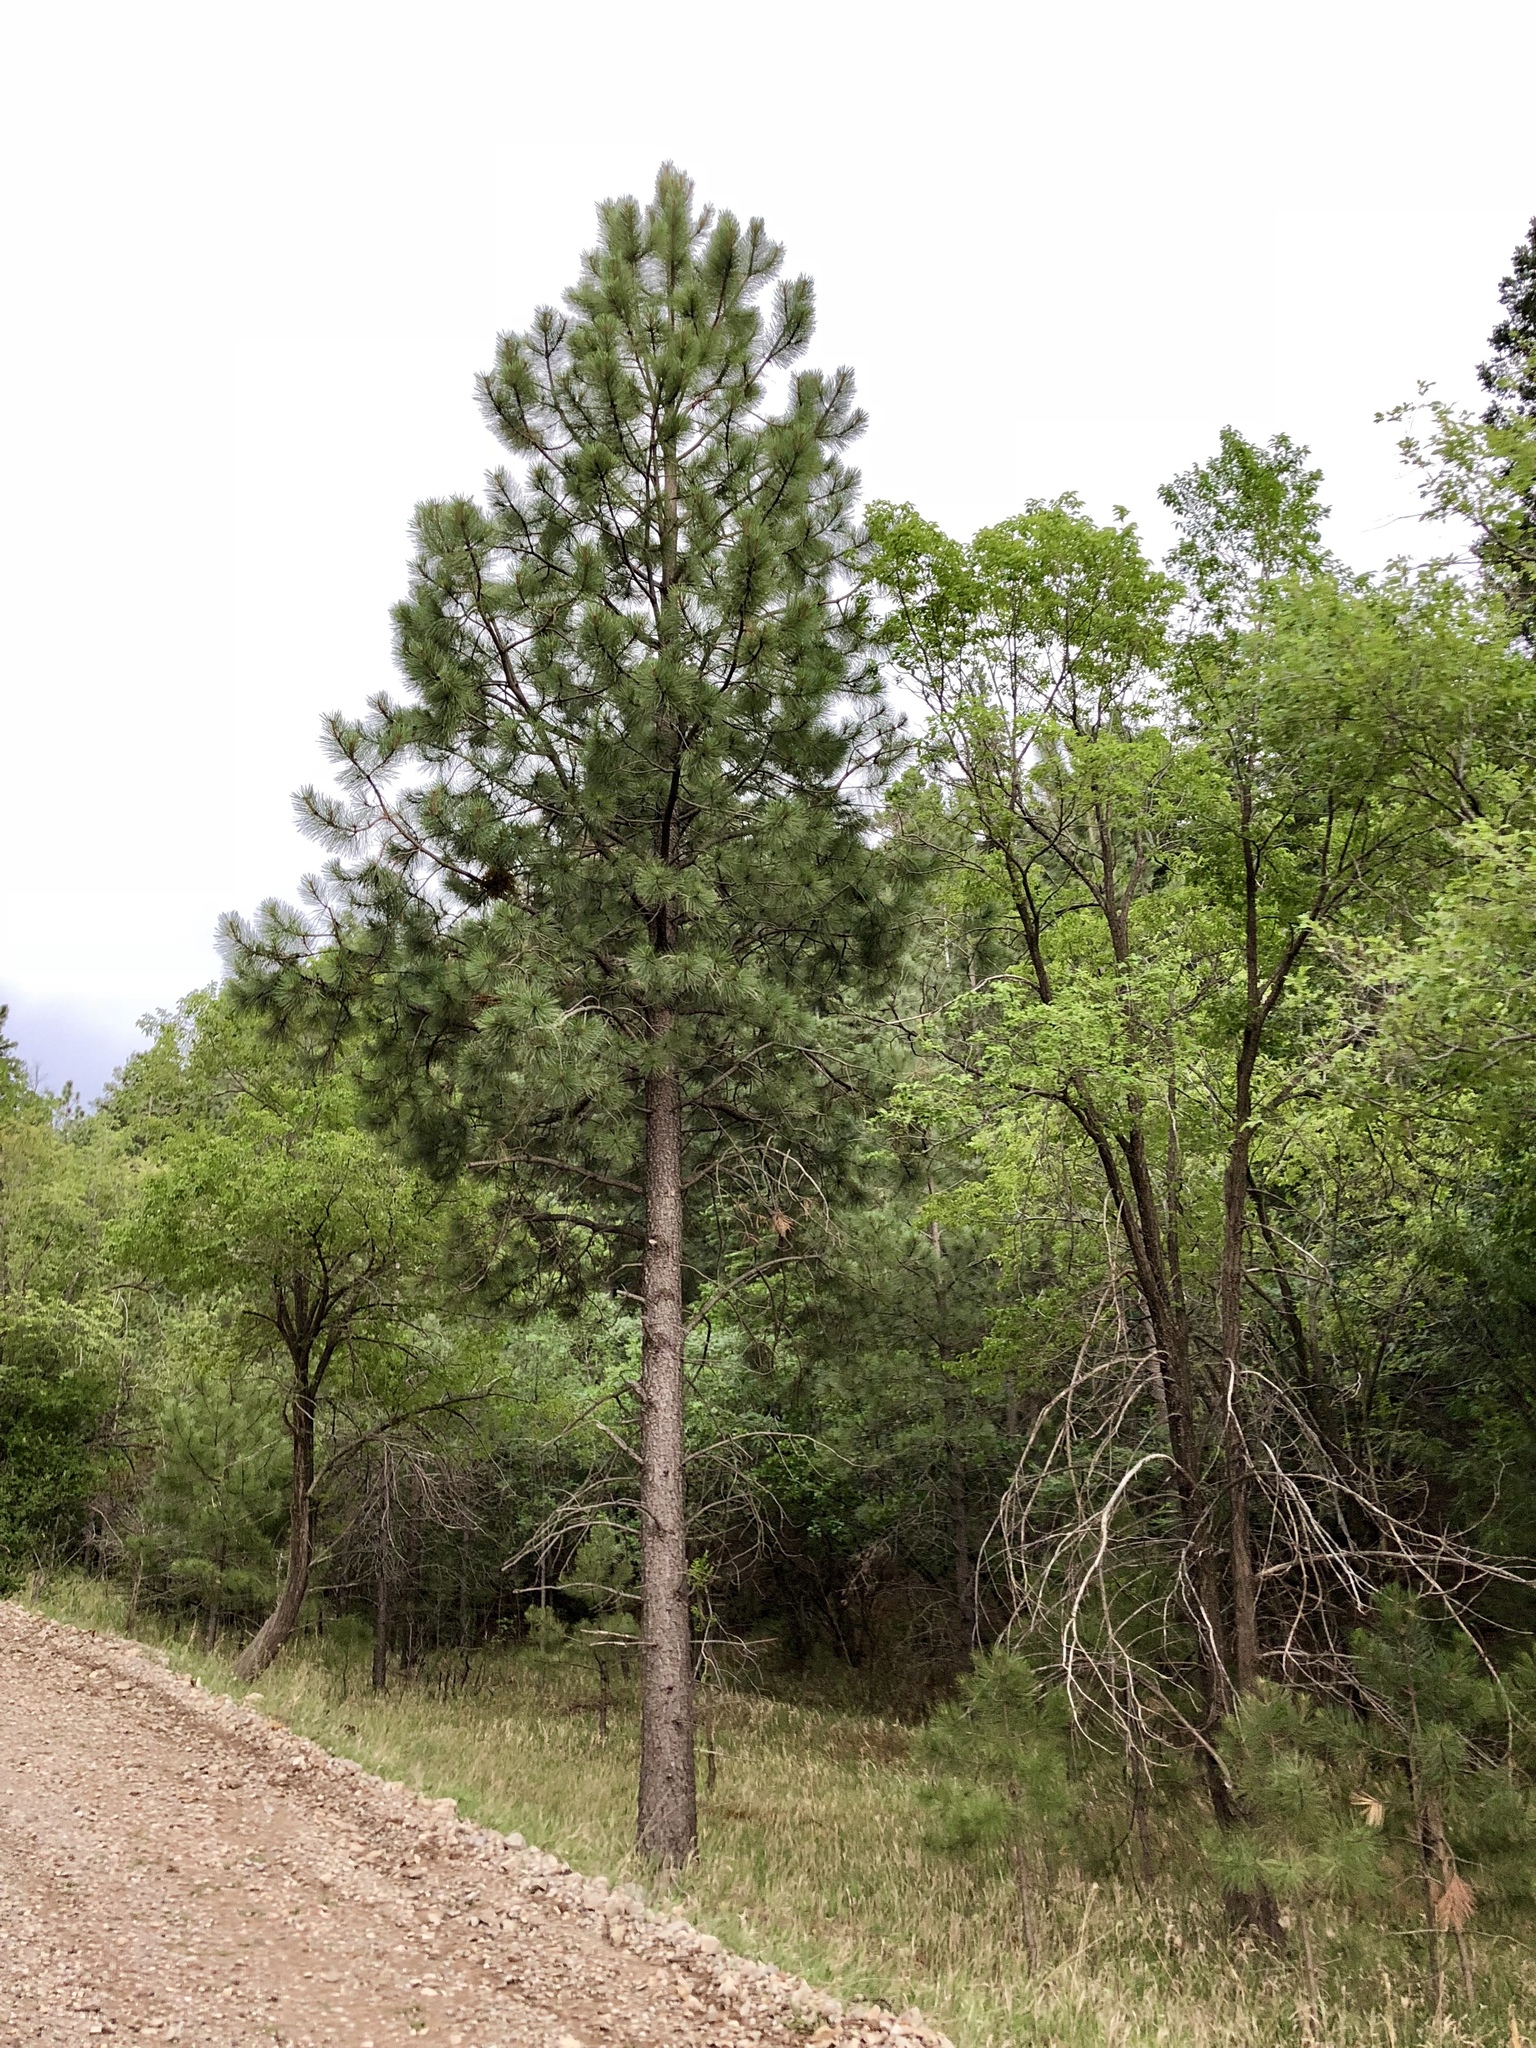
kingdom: Plantae
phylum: Tracheophyta
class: Pinopsida
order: Pinales
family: Pinaceae
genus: Pinus
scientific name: Pinus ponderosa
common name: Western yellow-pine
